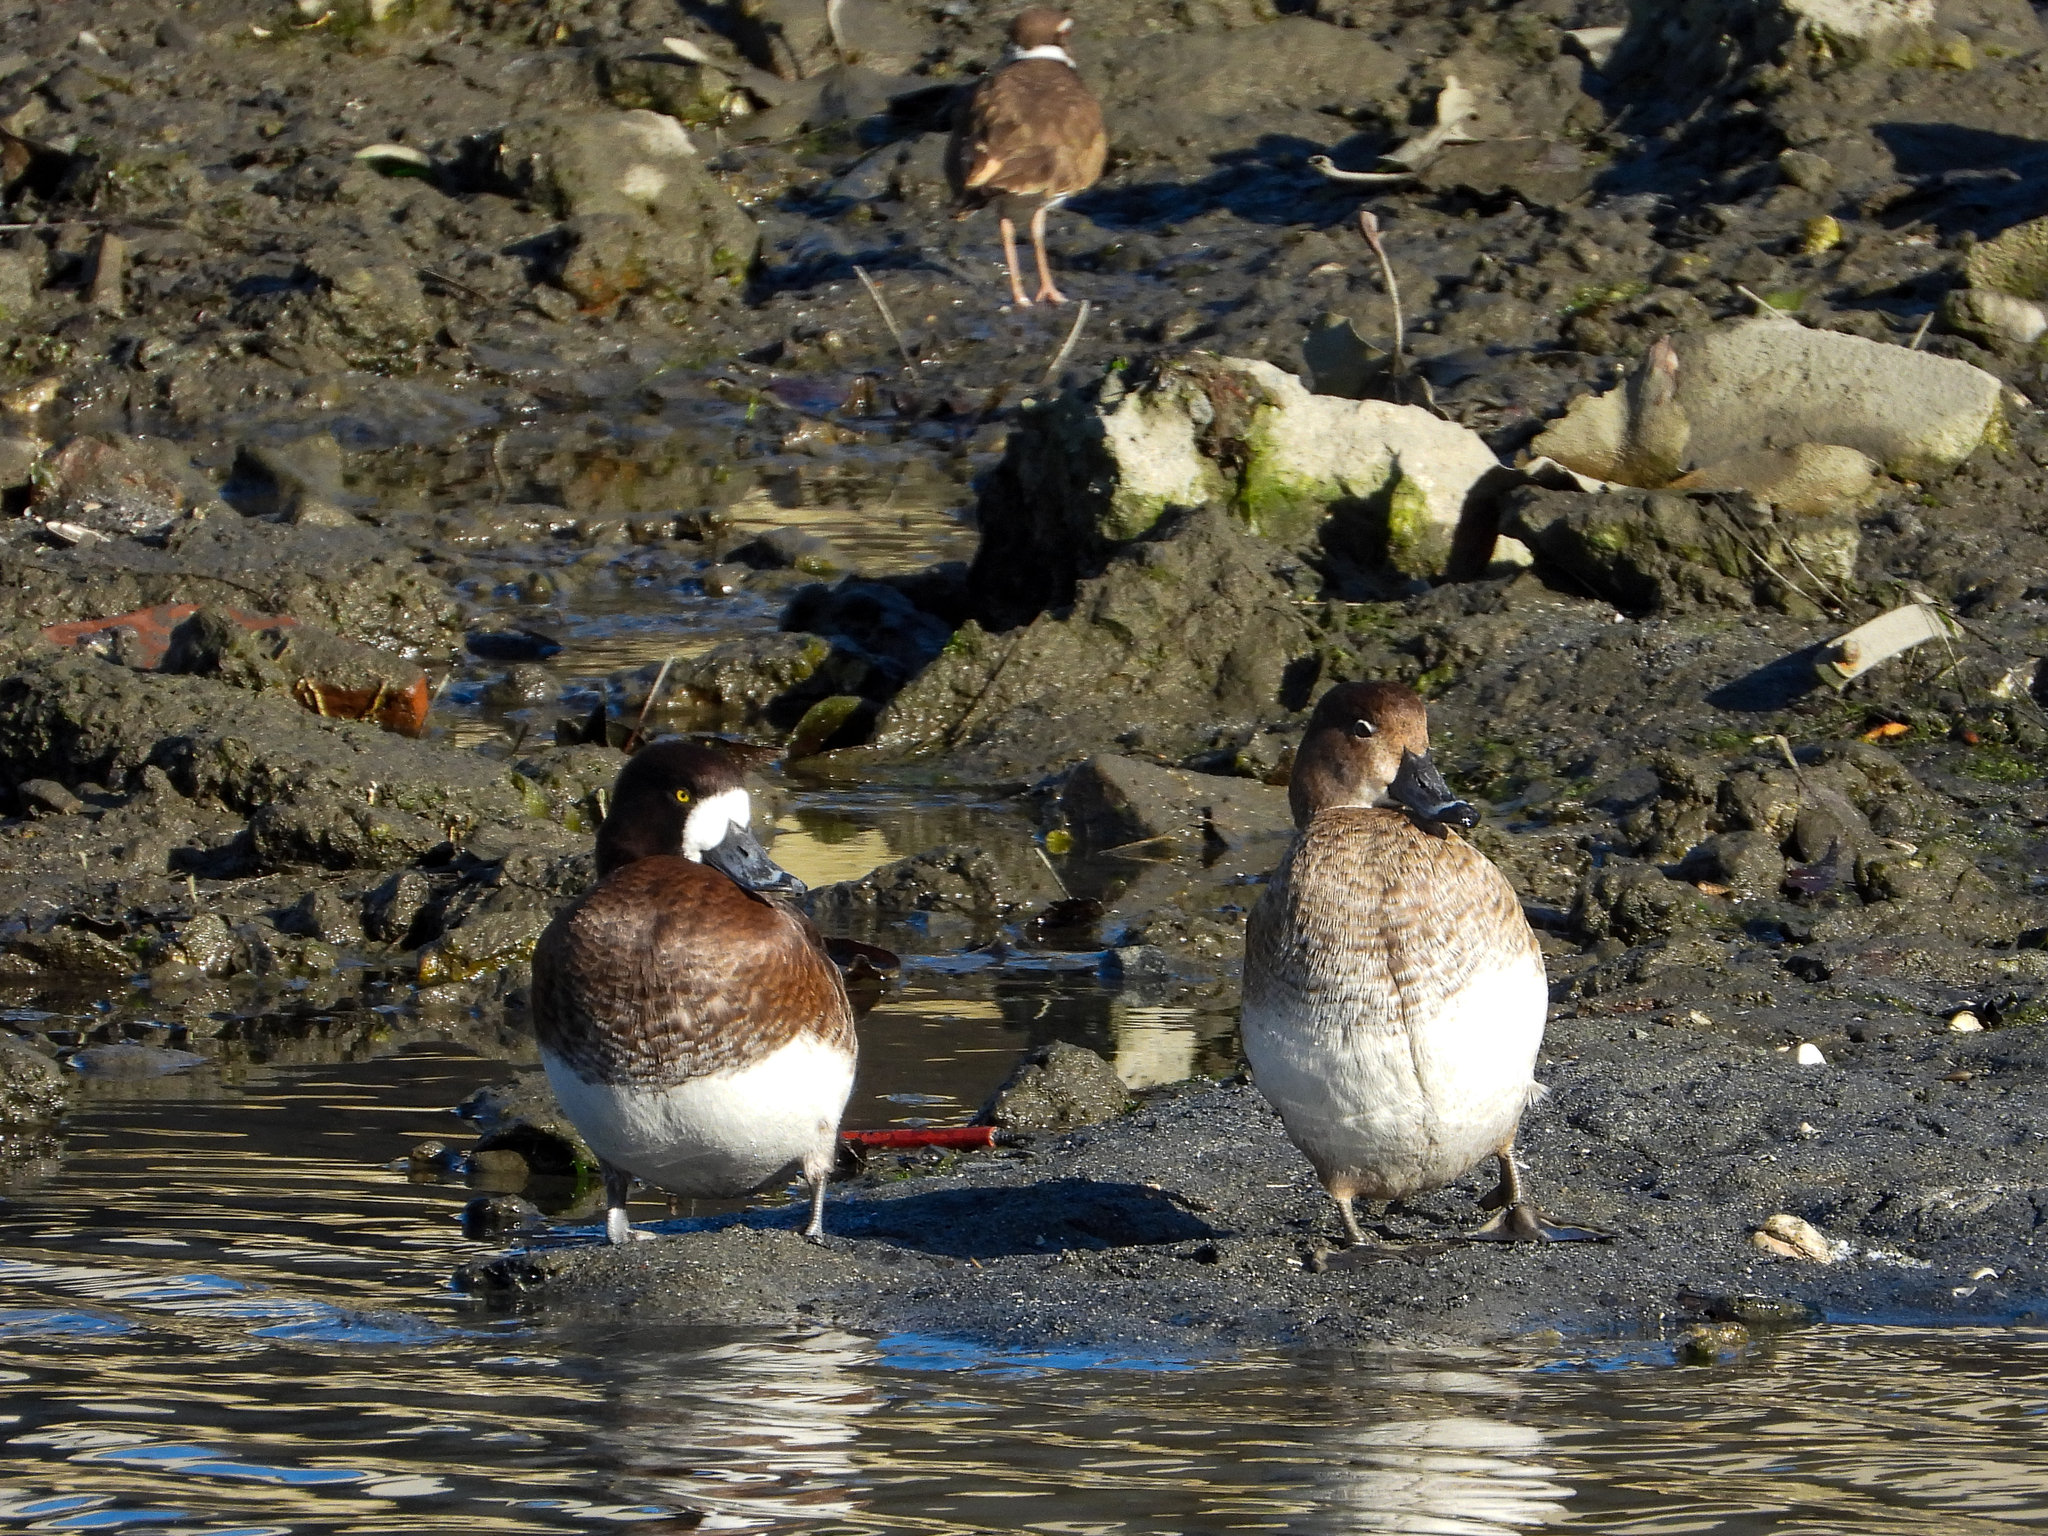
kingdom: Animalia
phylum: Chordata
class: Aves
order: Anseriformes
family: Anatidae
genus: Aythya
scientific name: Aythya marila
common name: Greater scaup
